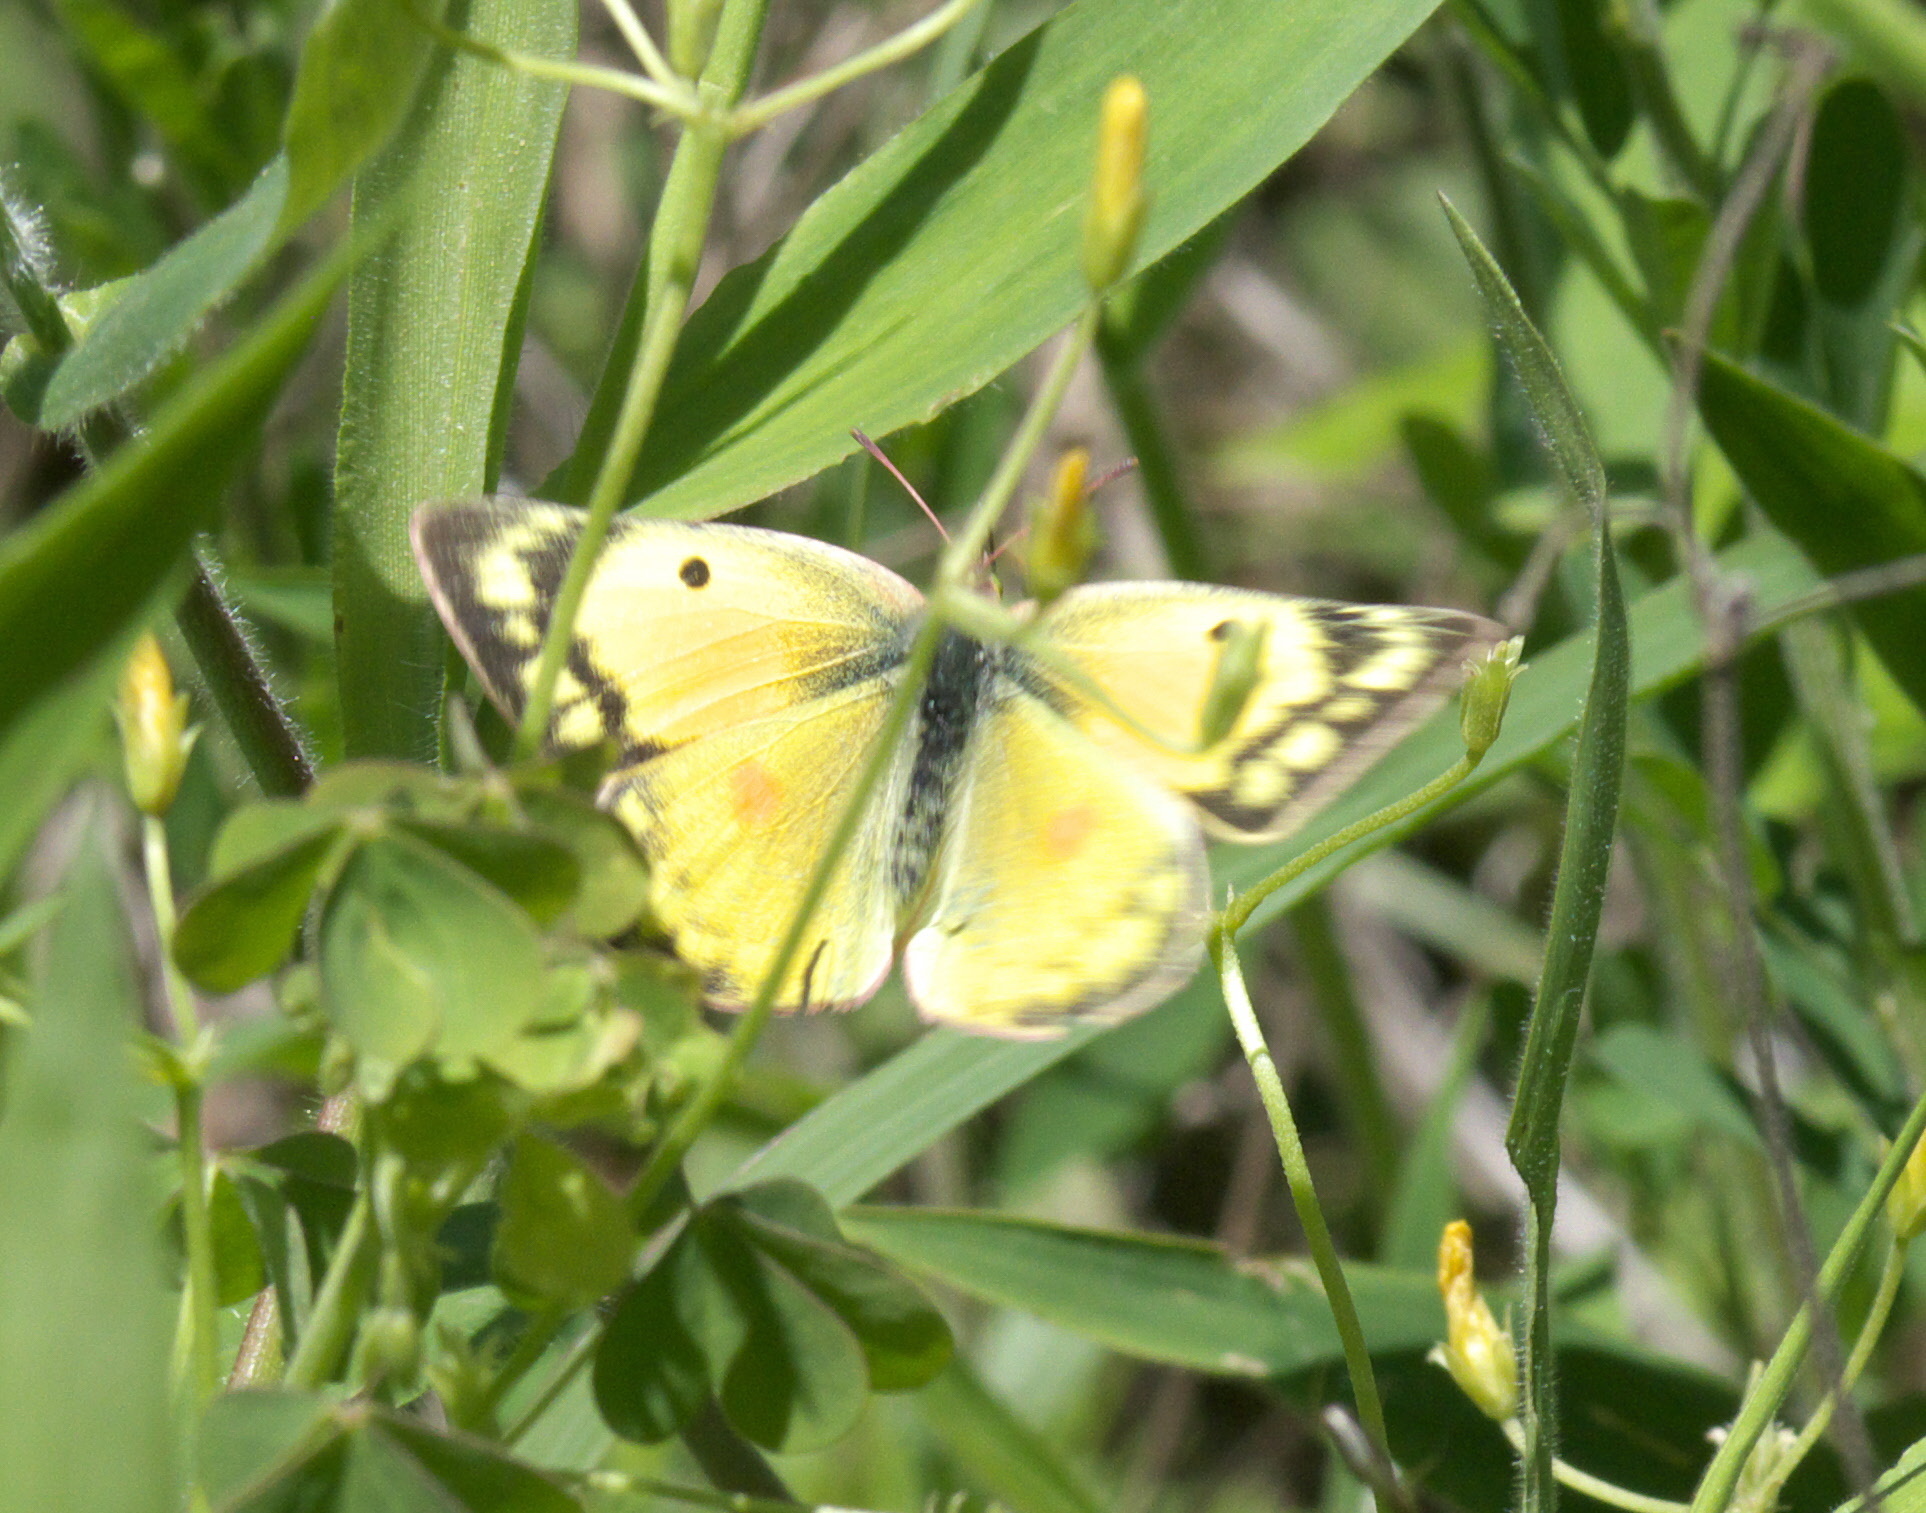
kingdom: Animalia
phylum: Arthropoda
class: Insecta
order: Lepidoptera
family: Pieridae
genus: Colias
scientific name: Colias eurytheme
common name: Alfalfa butterfly
